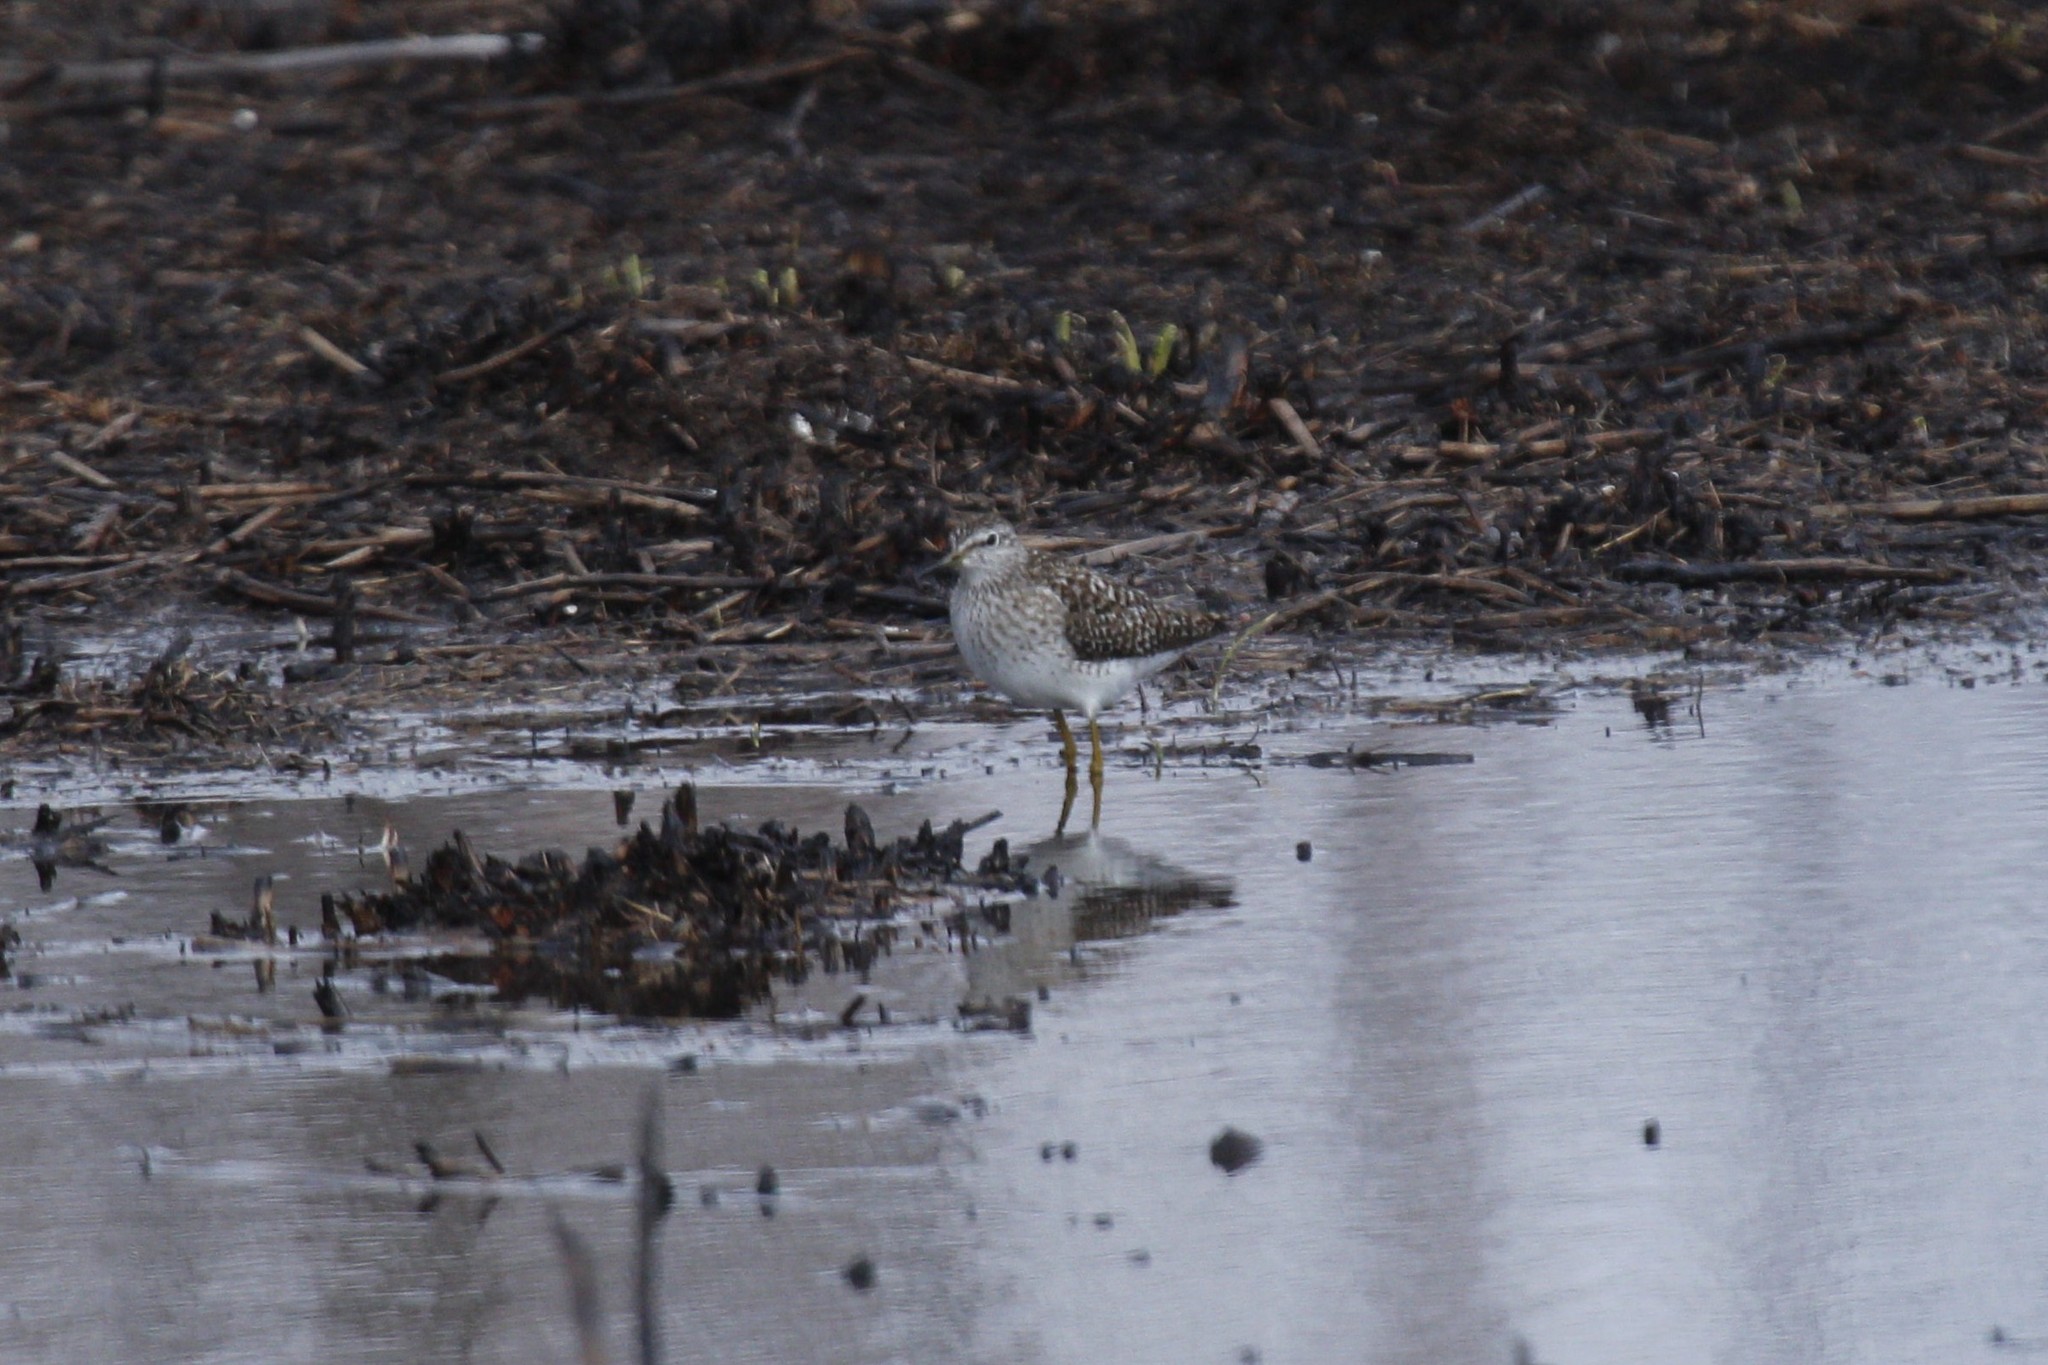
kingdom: Animalia
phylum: Chordata
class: Aves
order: Charadriiformes
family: Scolopacidae
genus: Tringa
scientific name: Tringa glareola
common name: Wood sandpiper
